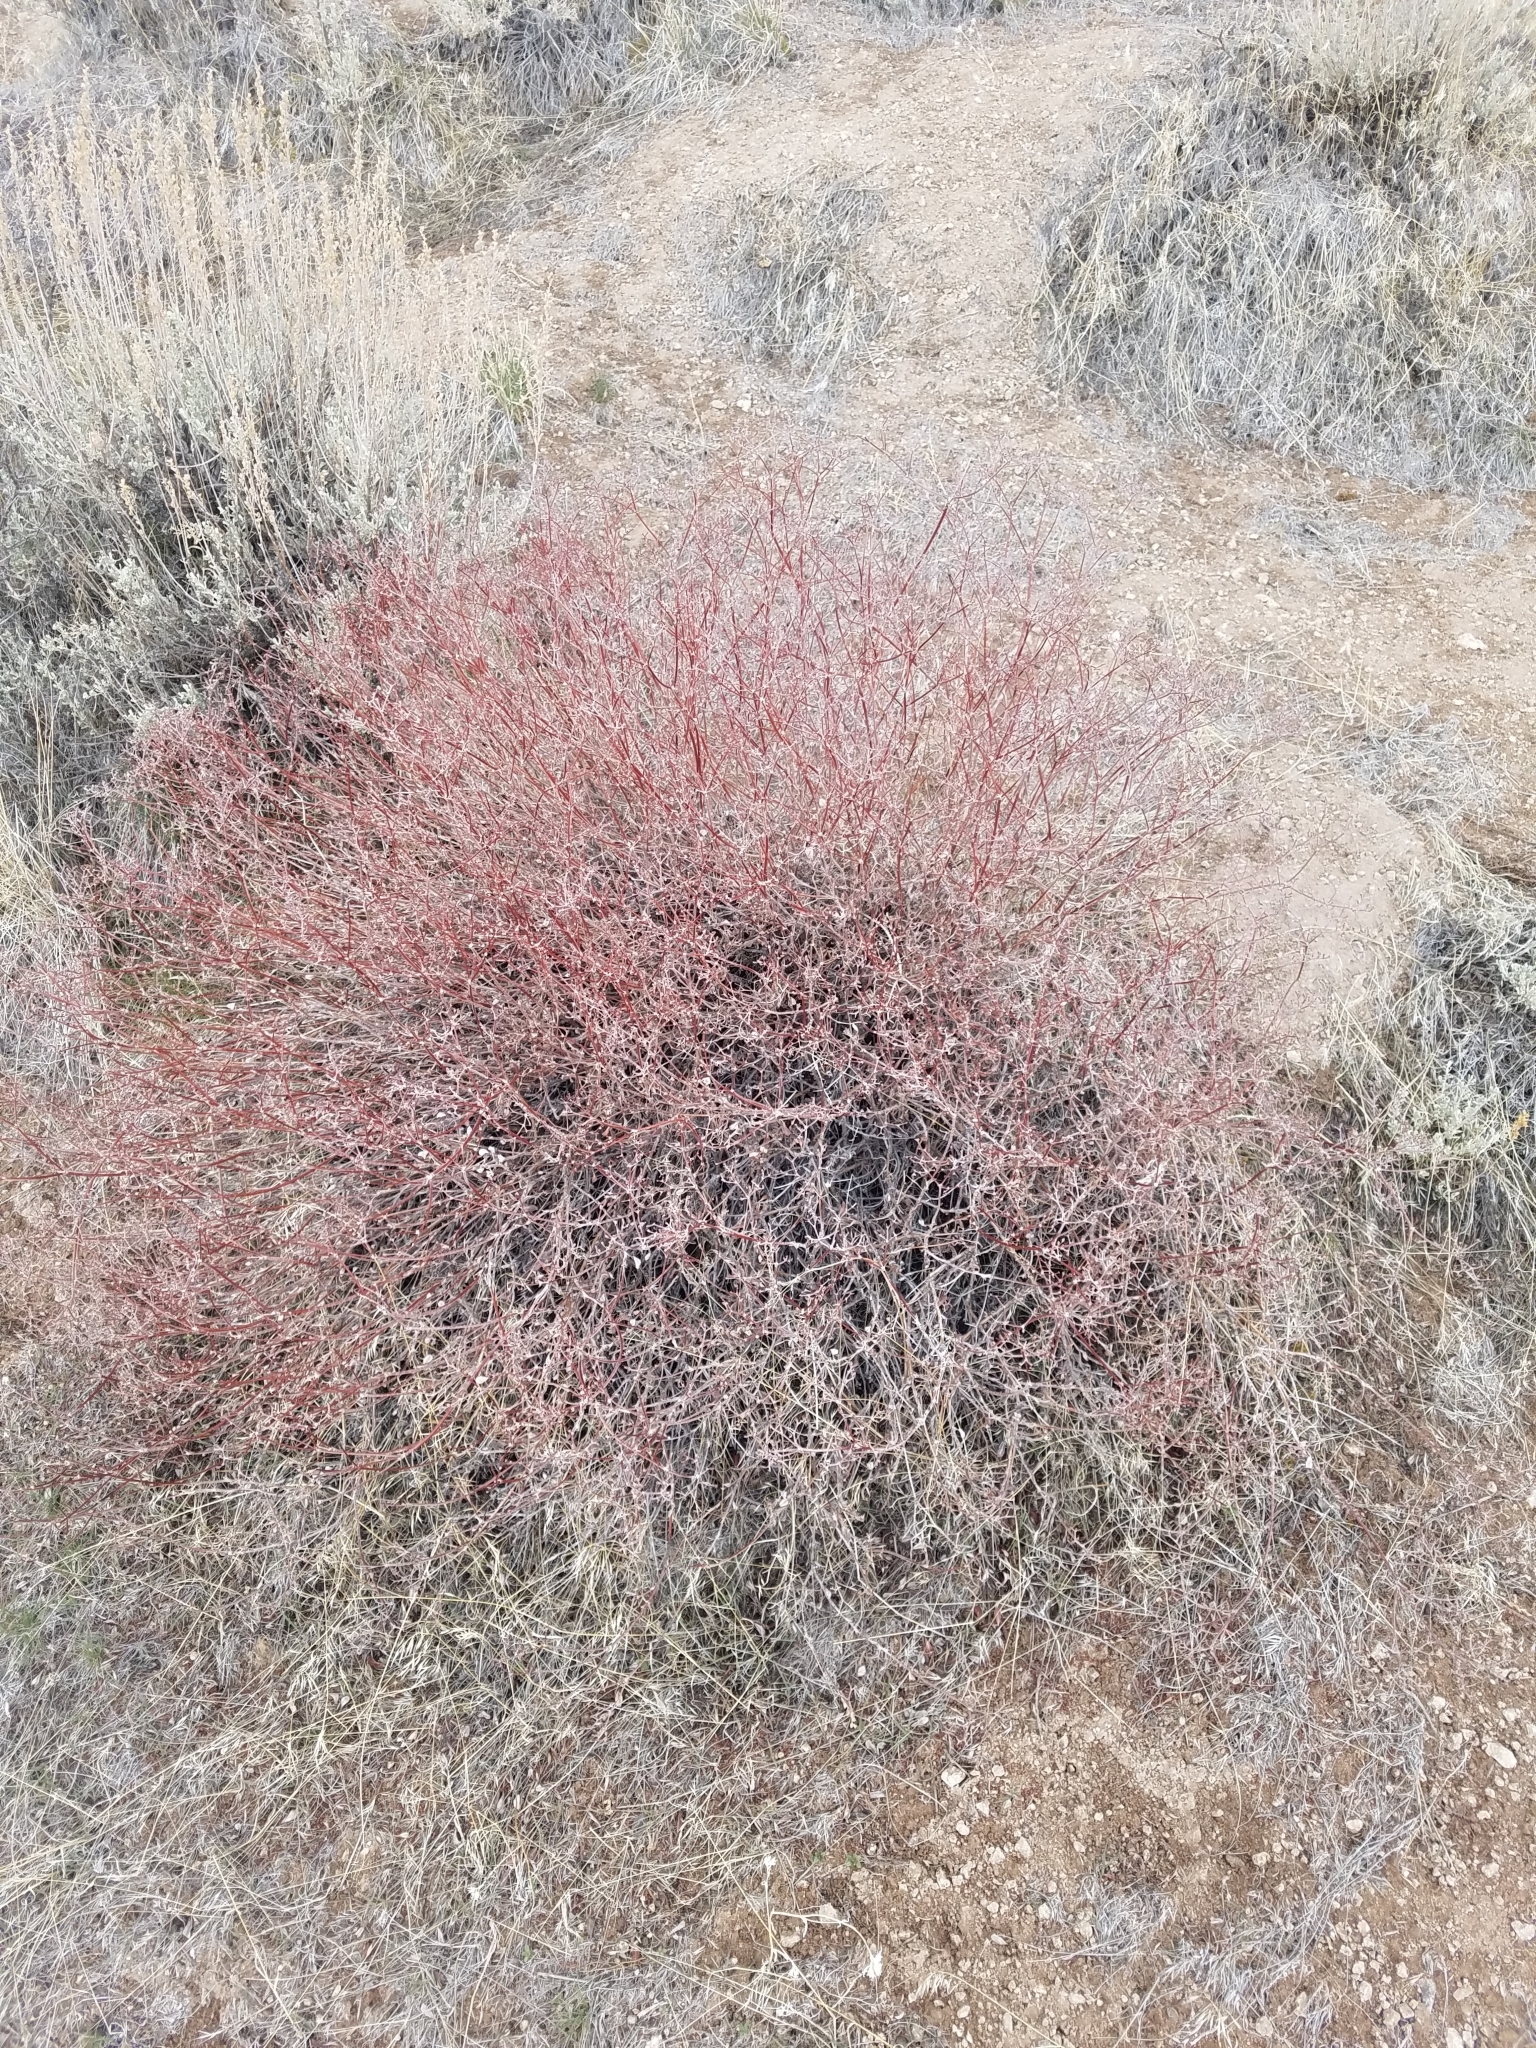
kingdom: Plantae
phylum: Tracheophyta
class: Magnoliopsida
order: Caryophyllales
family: Polygonaceae
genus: Eriogonum
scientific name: Eriogonum wrightii
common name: Bastard-sage
